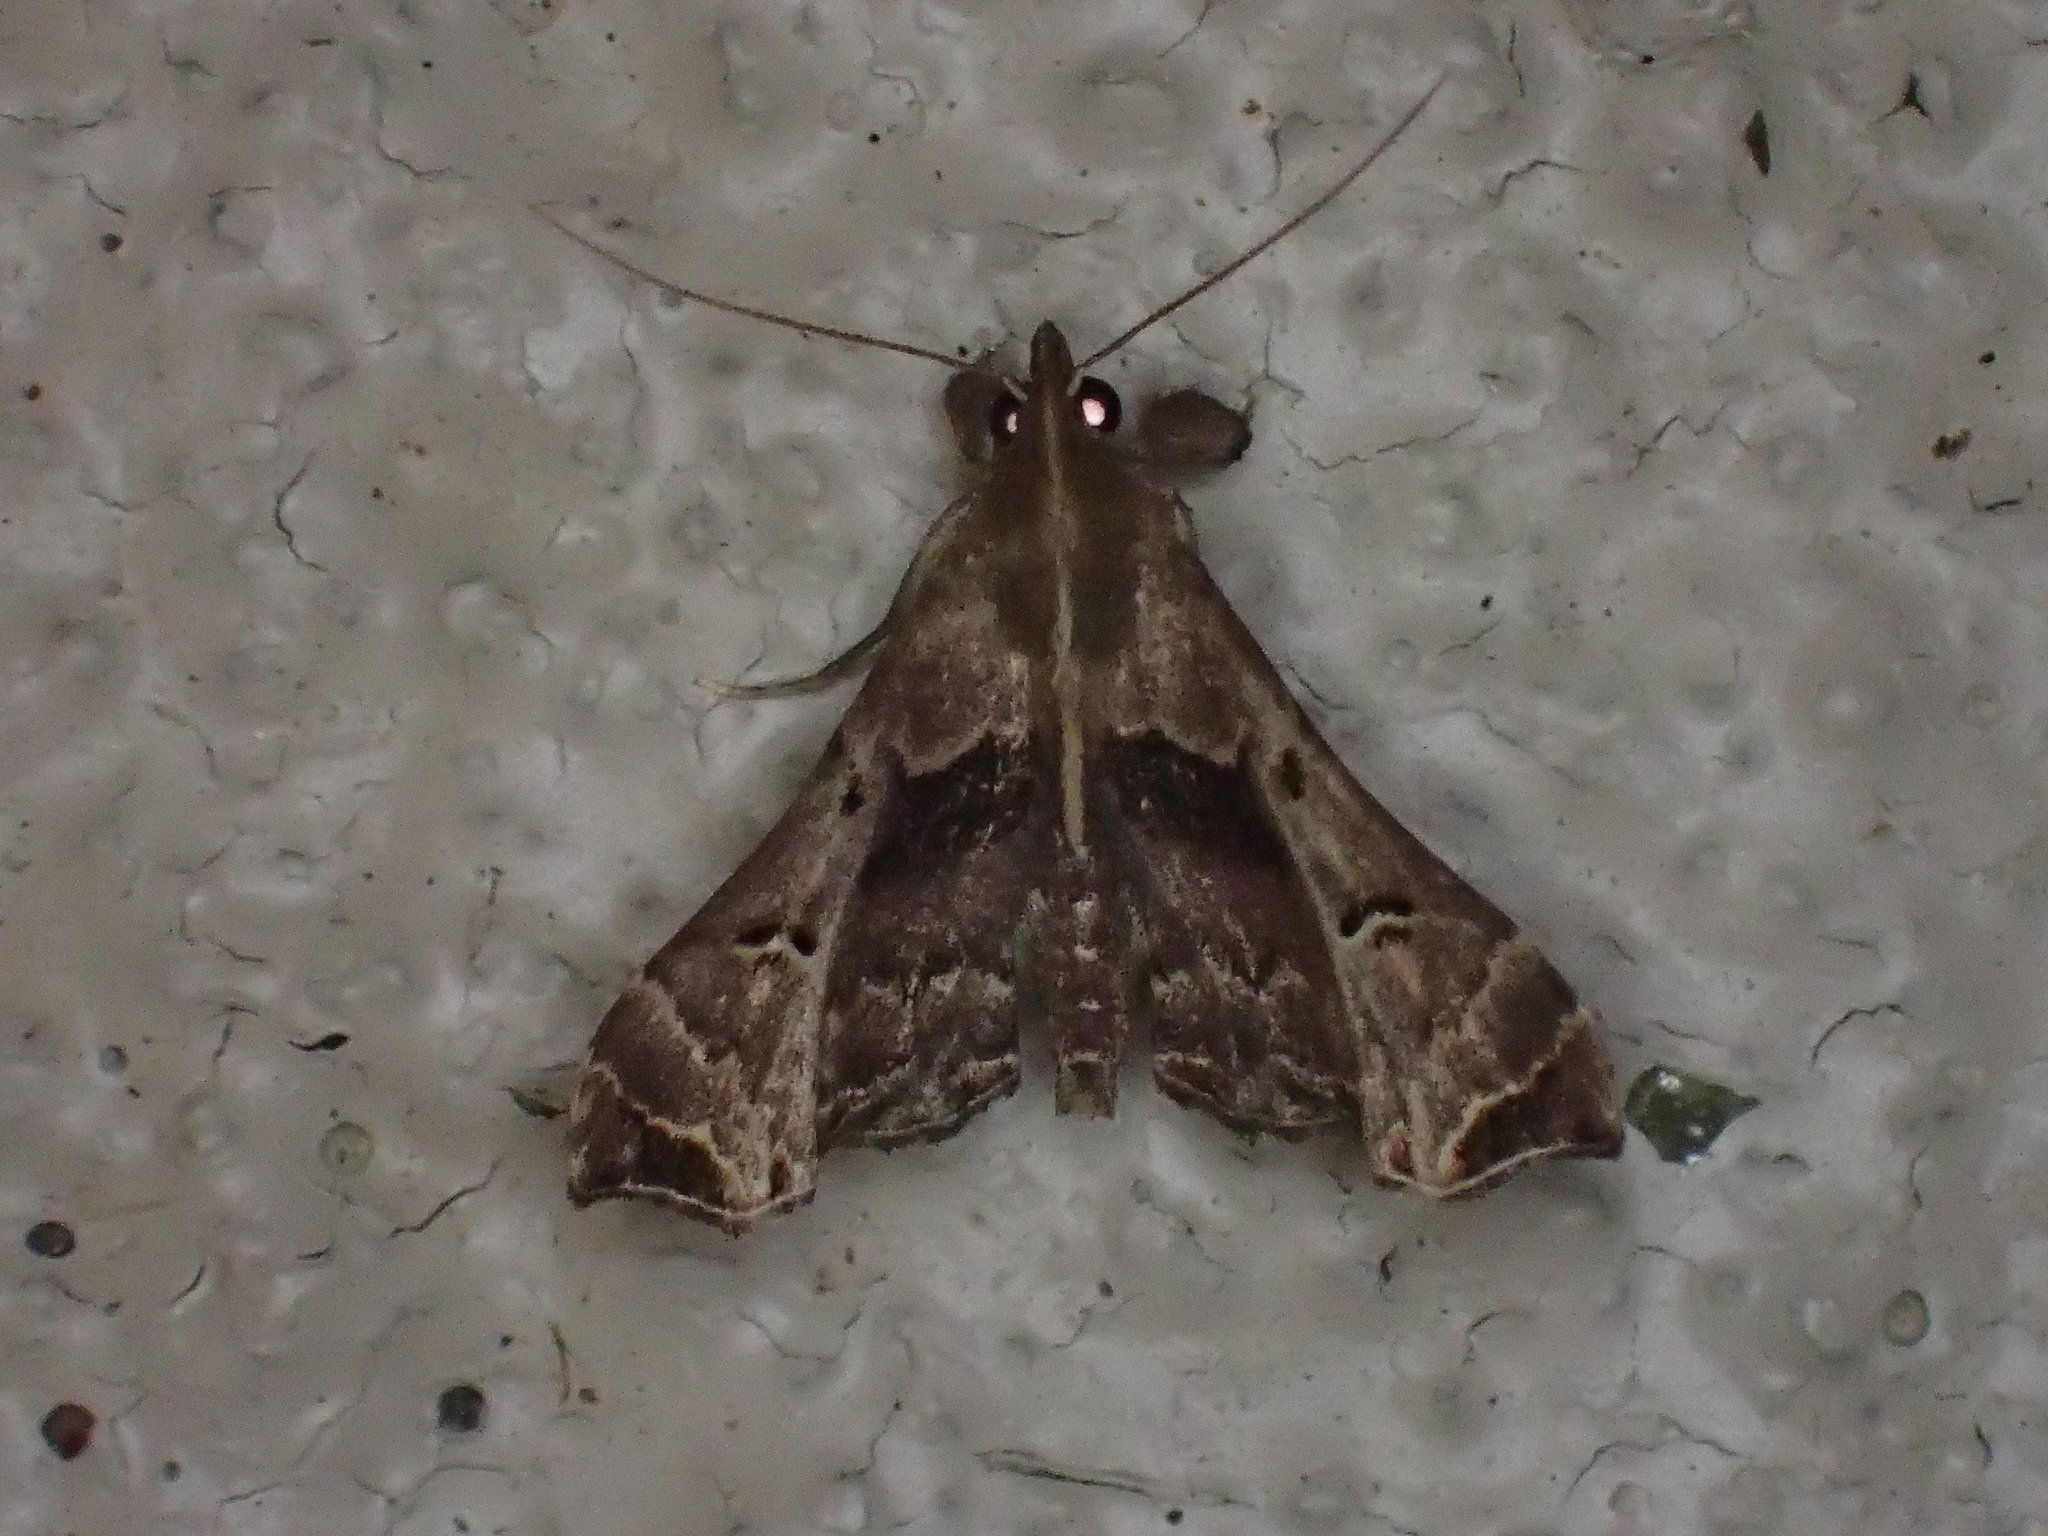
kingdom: Animalia
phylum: Arthropoda
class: Insecta
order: Lepidoptera
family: Erebidae
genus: Palthis
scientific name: Palthis asopialis
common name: Faint-spotted palthis moth
